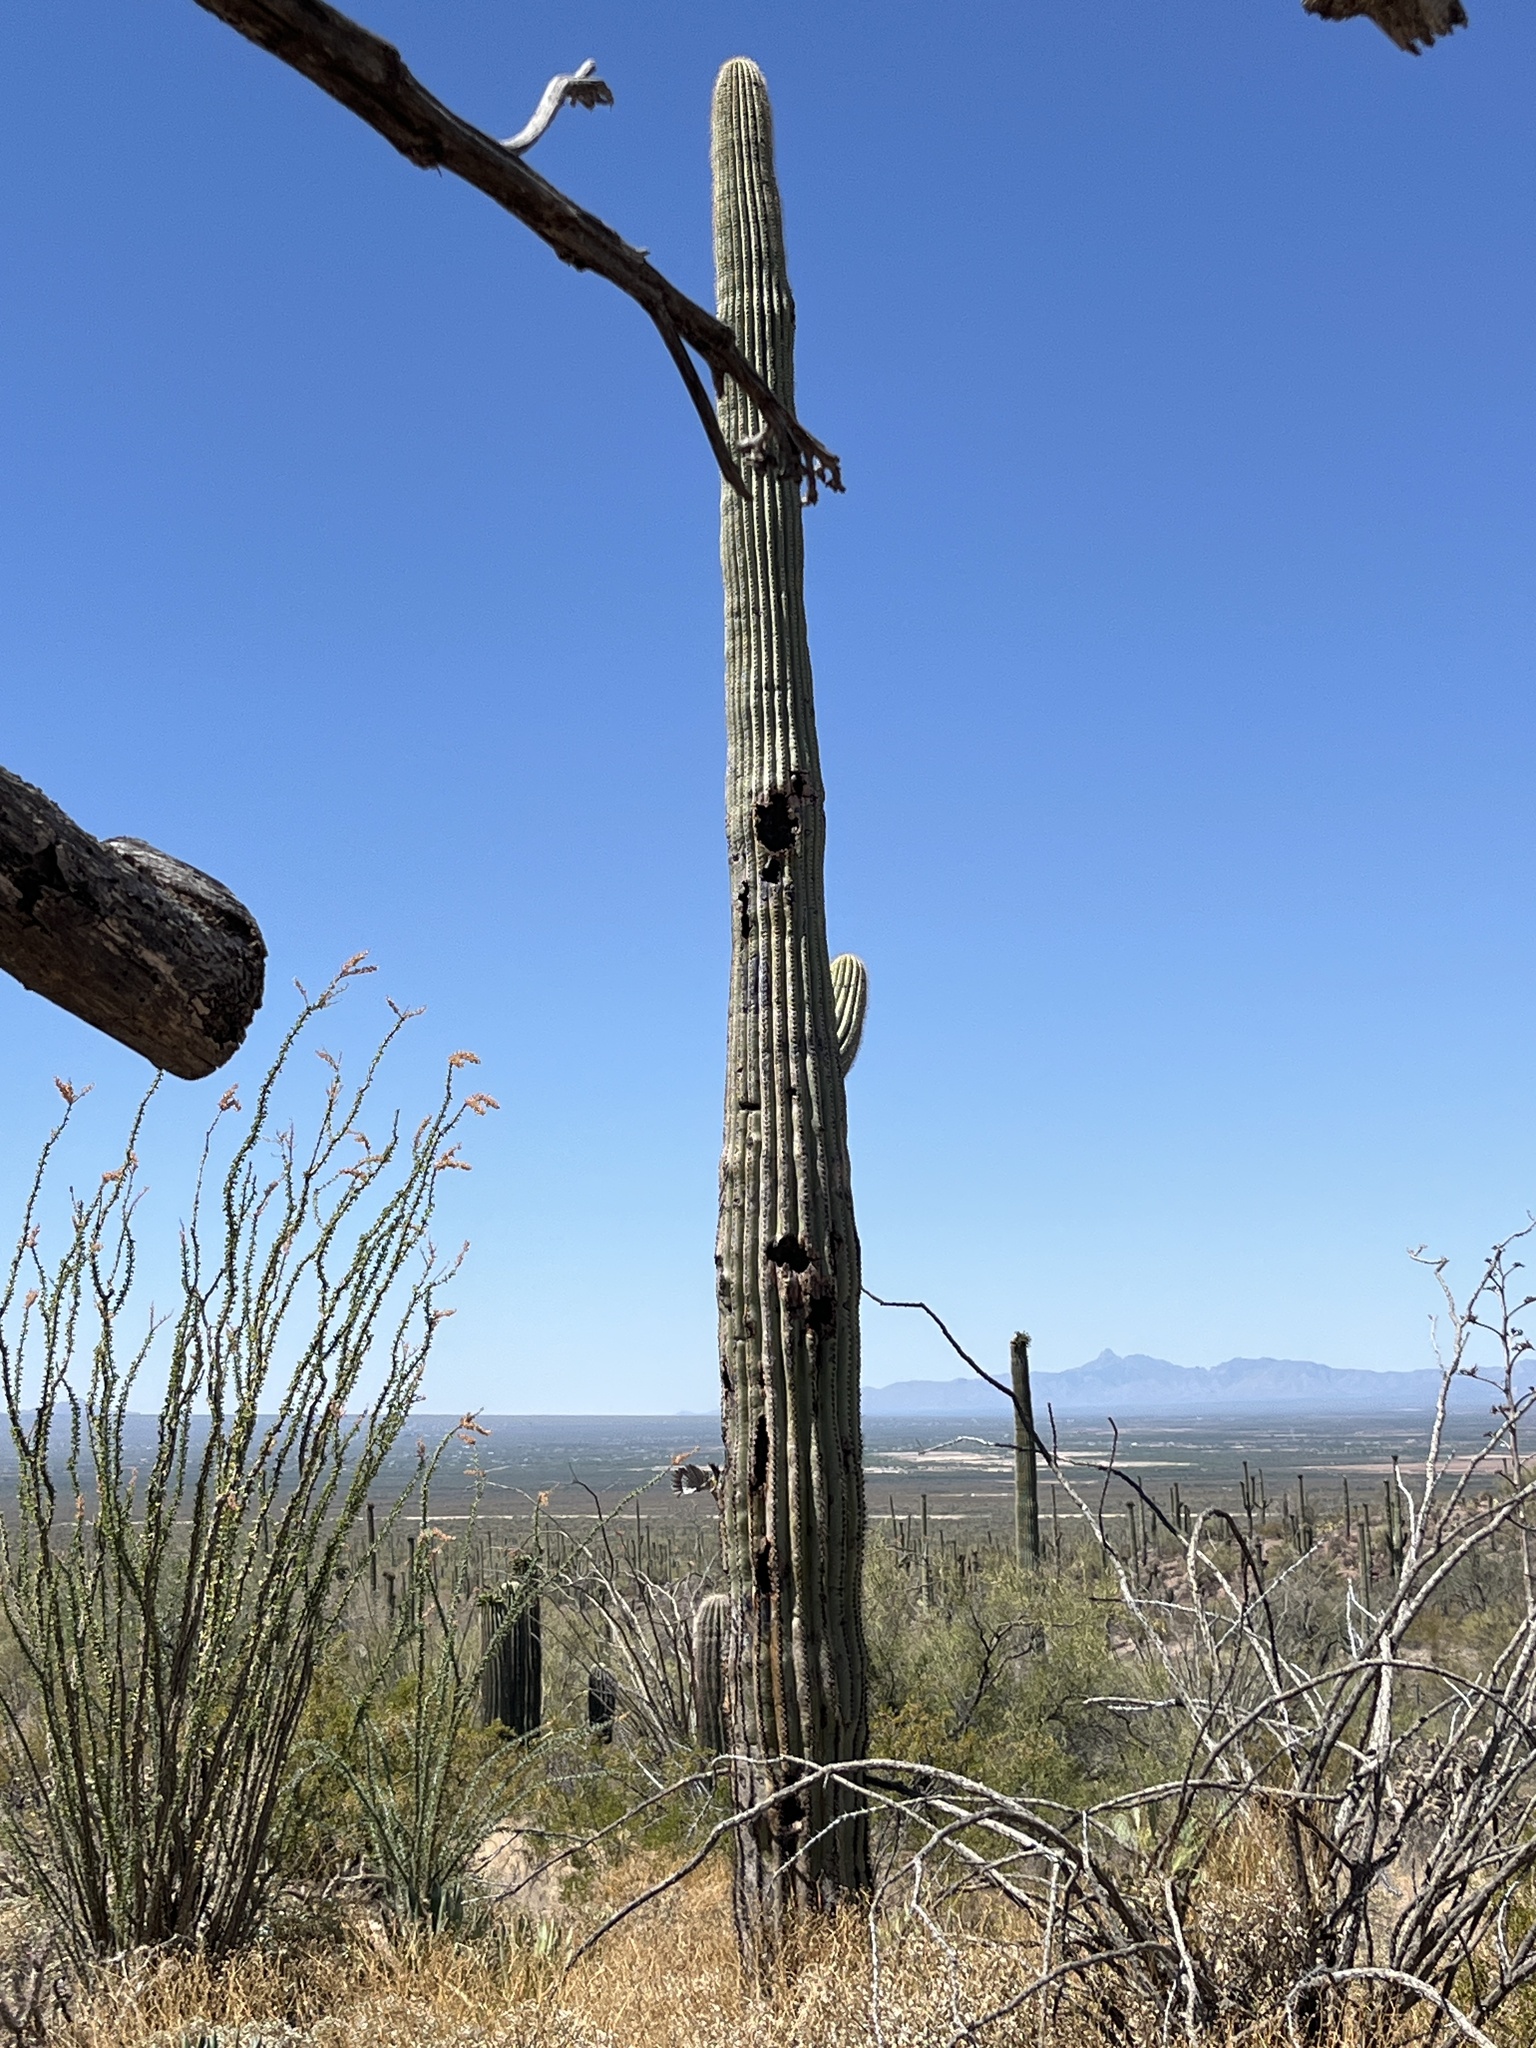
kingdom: Plantae
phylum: Tracheophyta
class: Magnoliopsida
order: Caryophyllales
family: Cactaceae
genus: Carnegiea
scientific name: Carnegiea gigantea
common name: Saguaro
